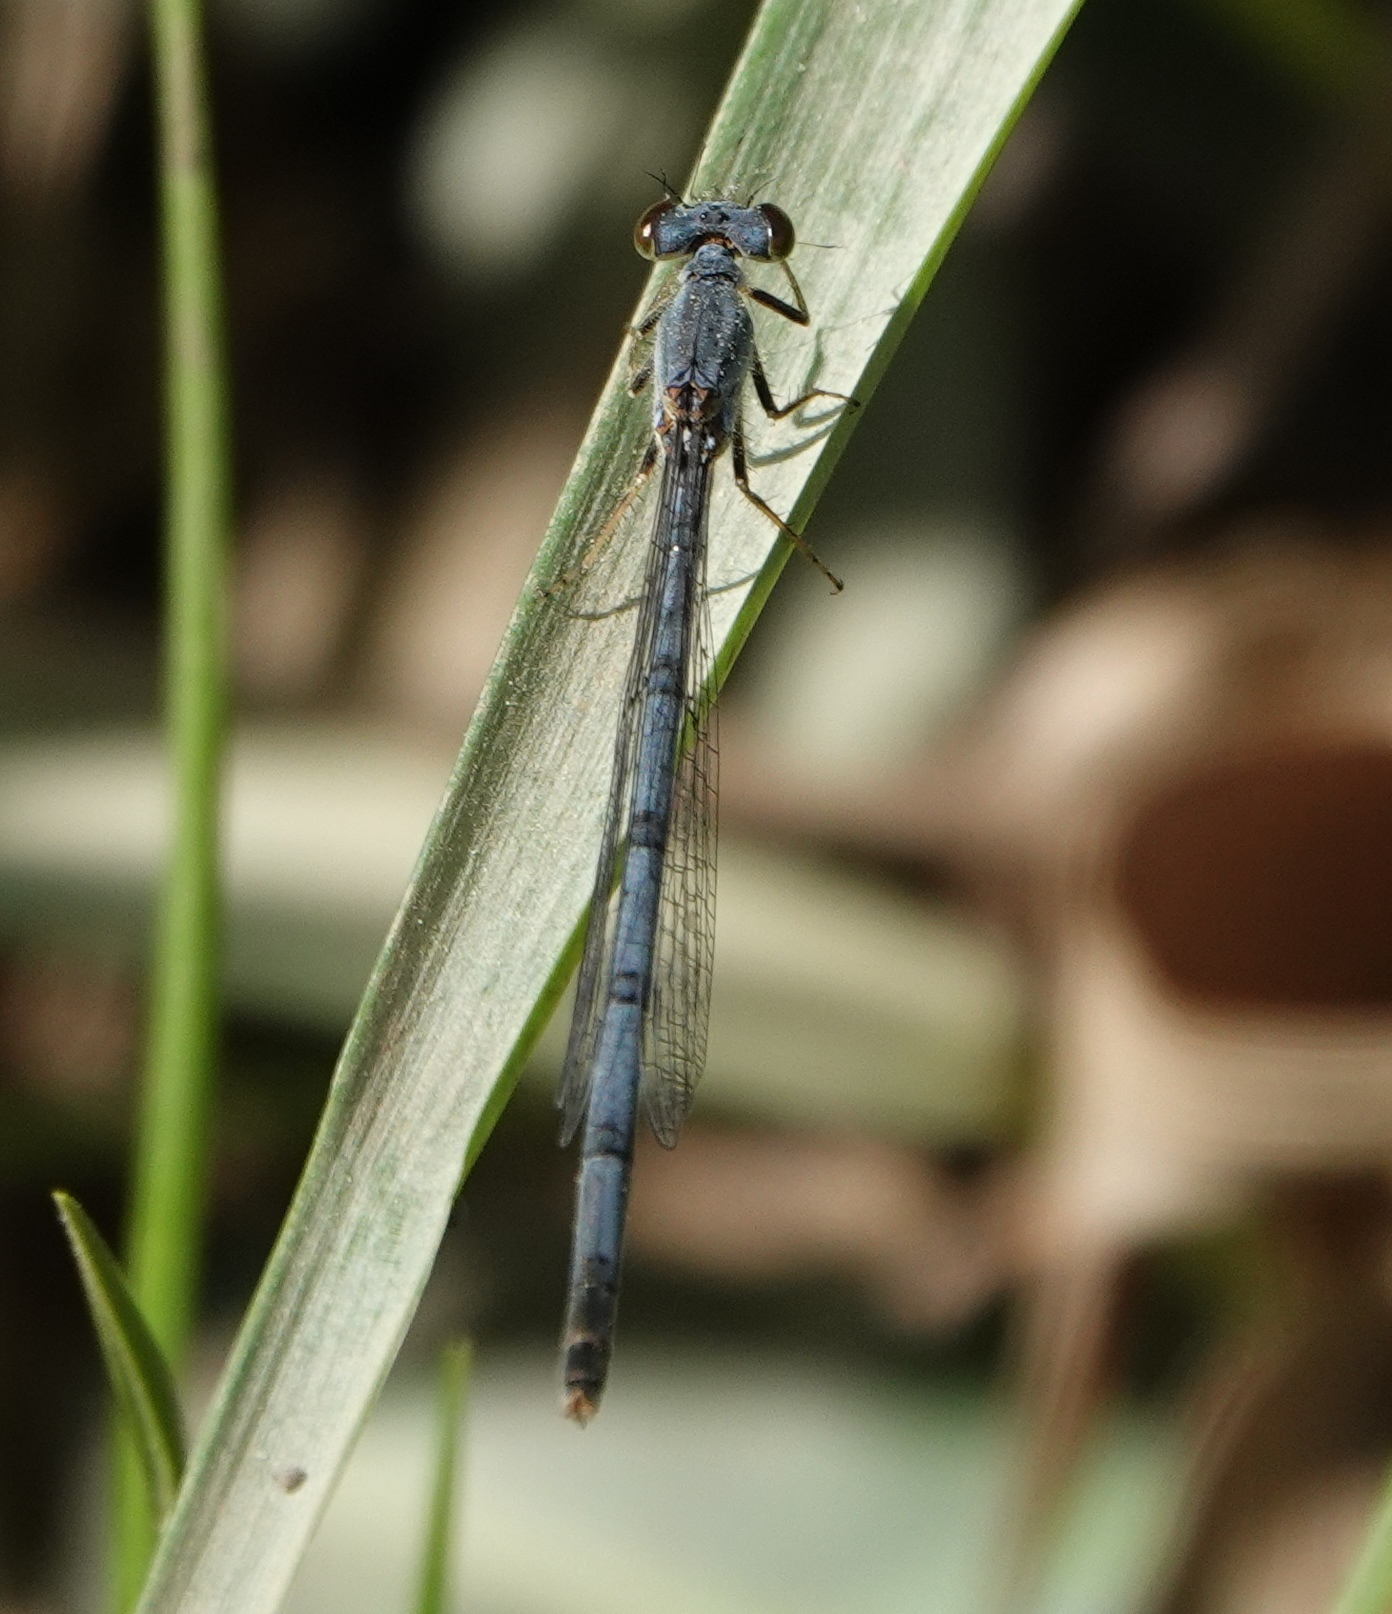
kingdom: Animalia
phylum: Arthropoda
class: Insecta
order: Odonata
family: Coenagrionidae
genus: Ischnura
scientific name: Ischnura verticalis
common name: Eastern forktail
